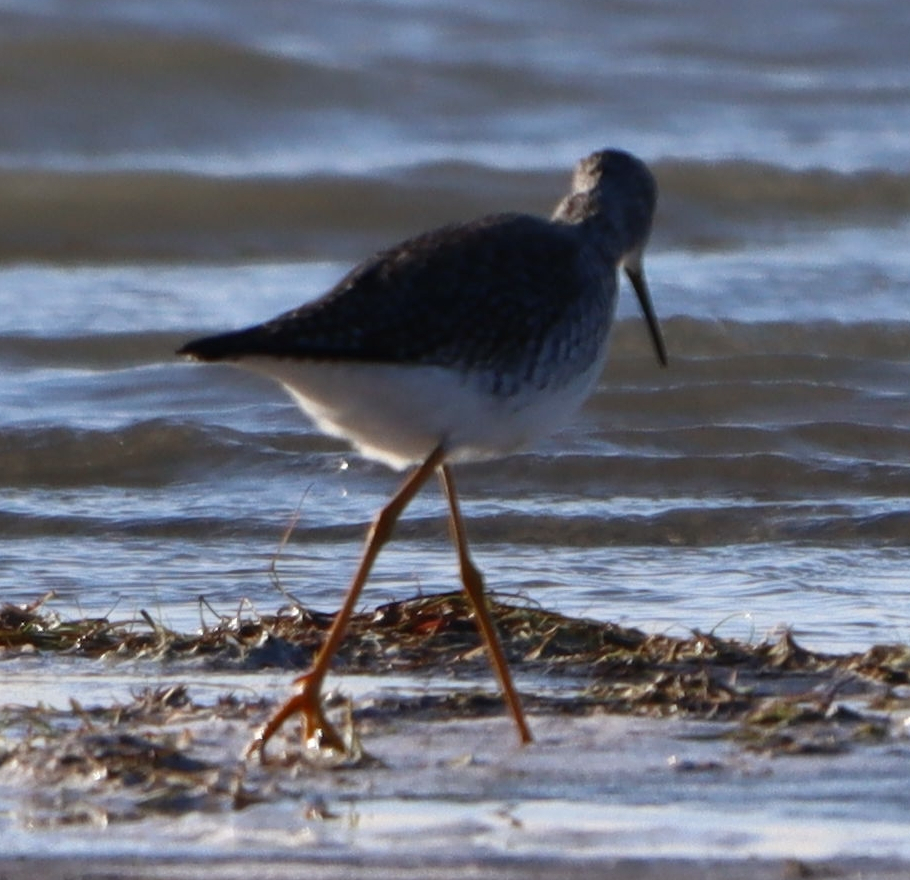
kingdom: Animalia
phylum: Chordata
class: Aves
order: Charadriiformes
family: Scolopacidae
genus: Tringa
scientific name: Tringa melanoleuca
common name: Greater yellowlegs
